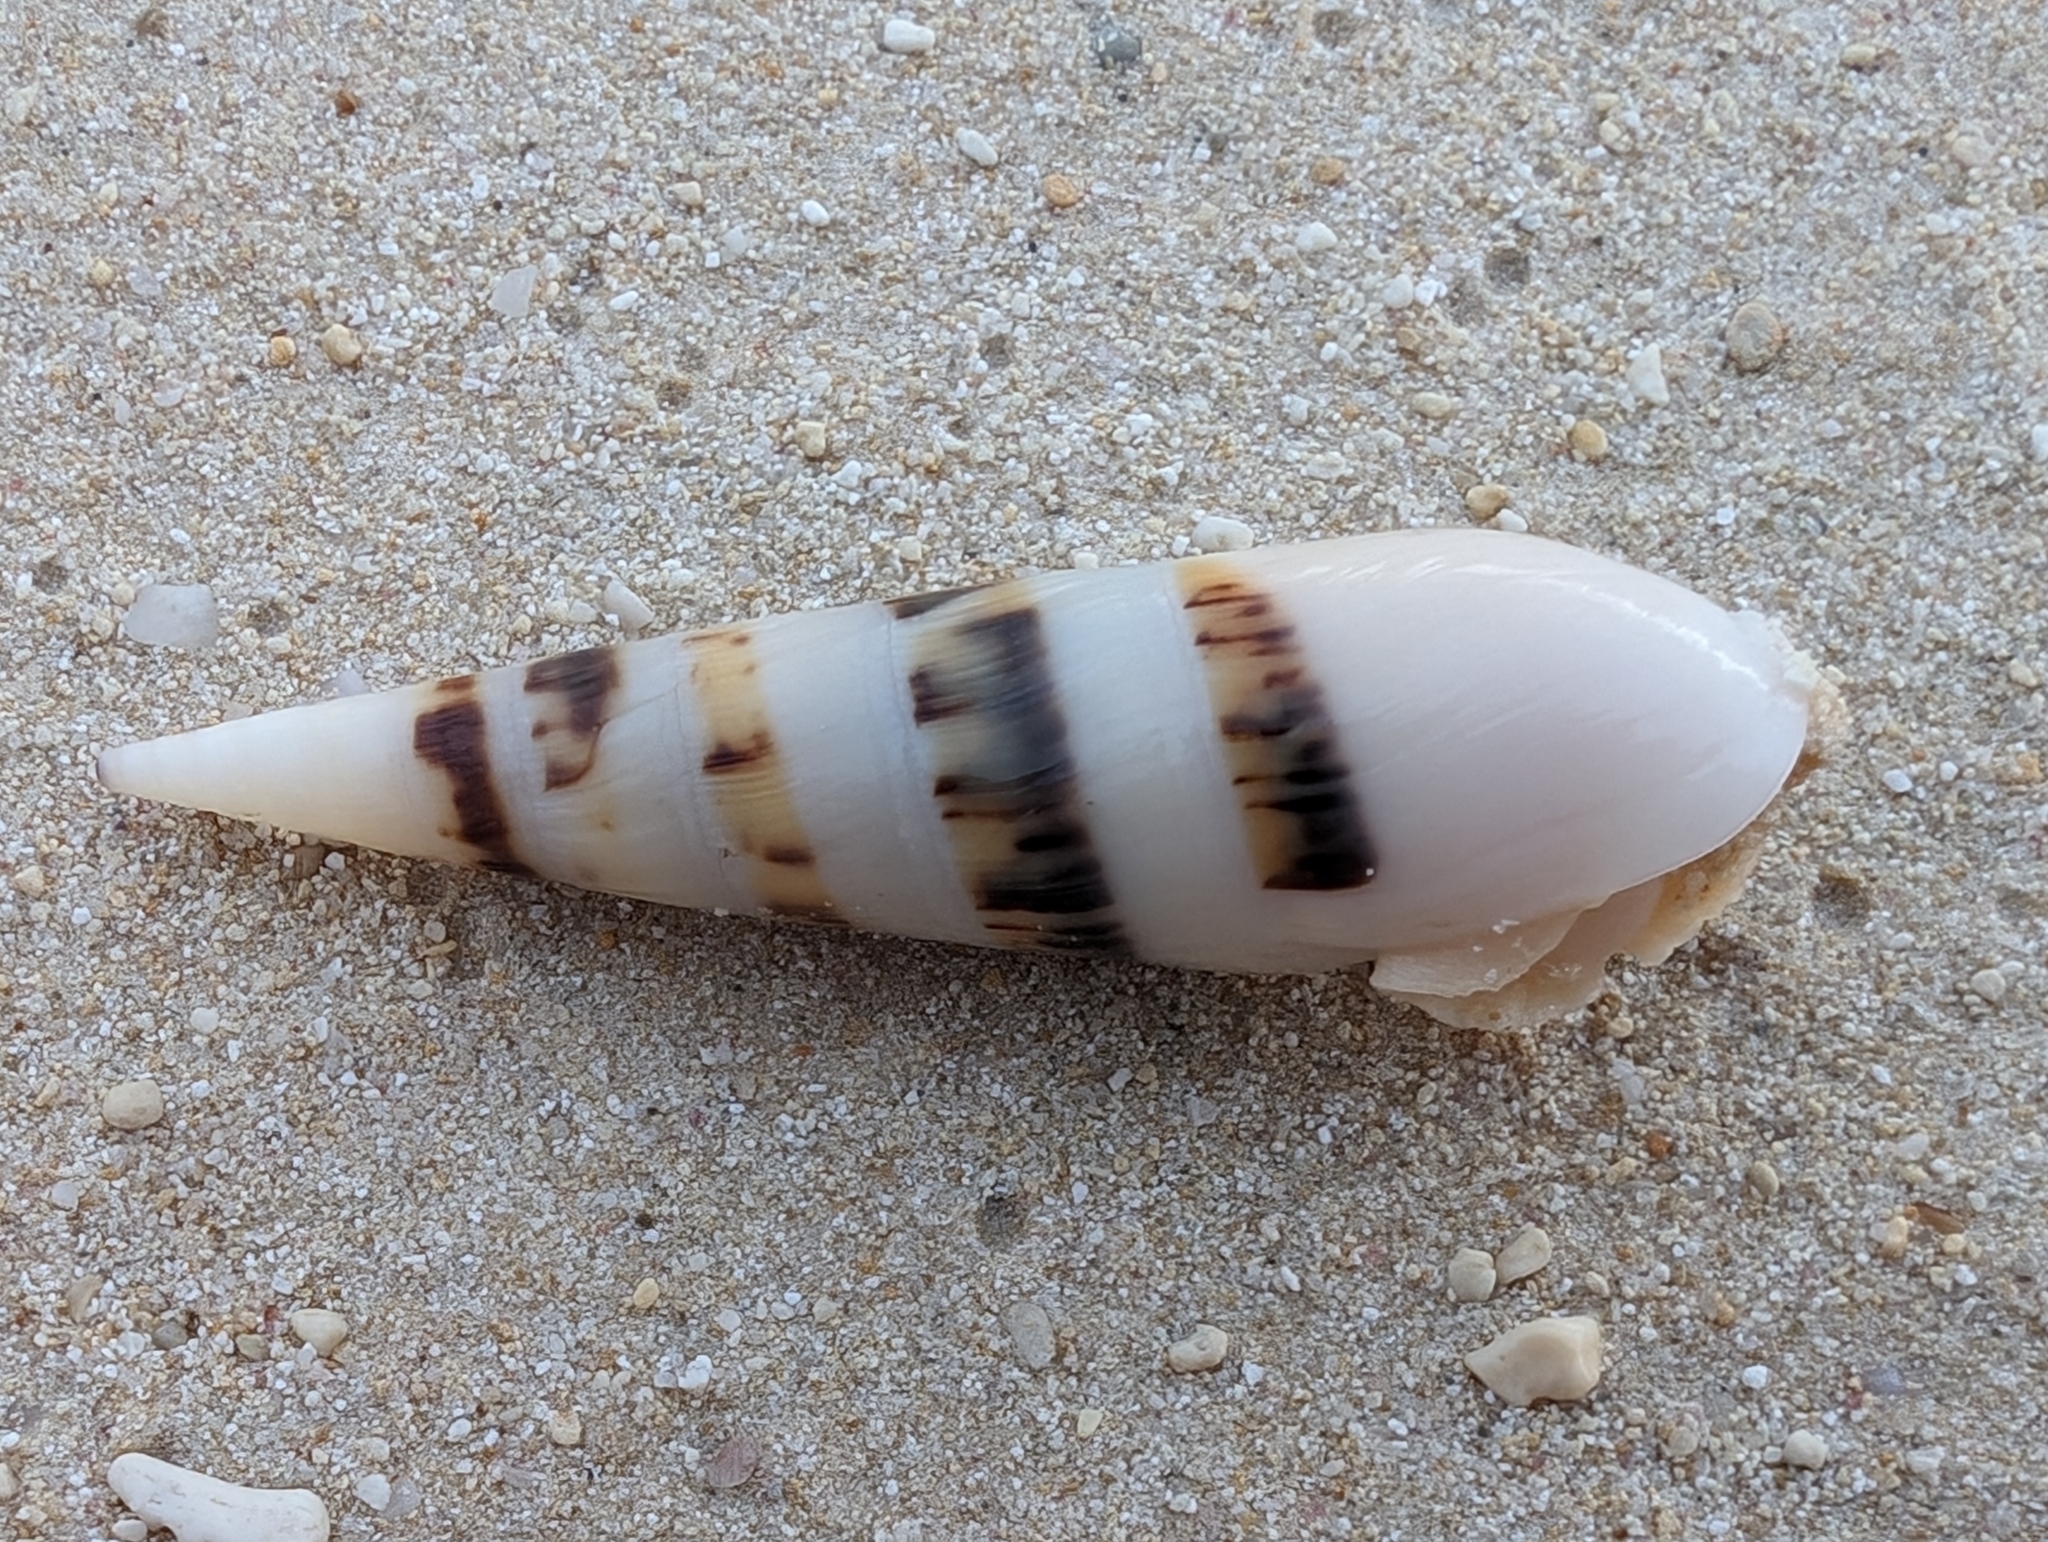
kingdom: Animalia
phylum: Mollusca
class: Gastropoda
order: Neogastropoda
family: Terebridae
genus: Hastula
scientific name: Hastula hectica
